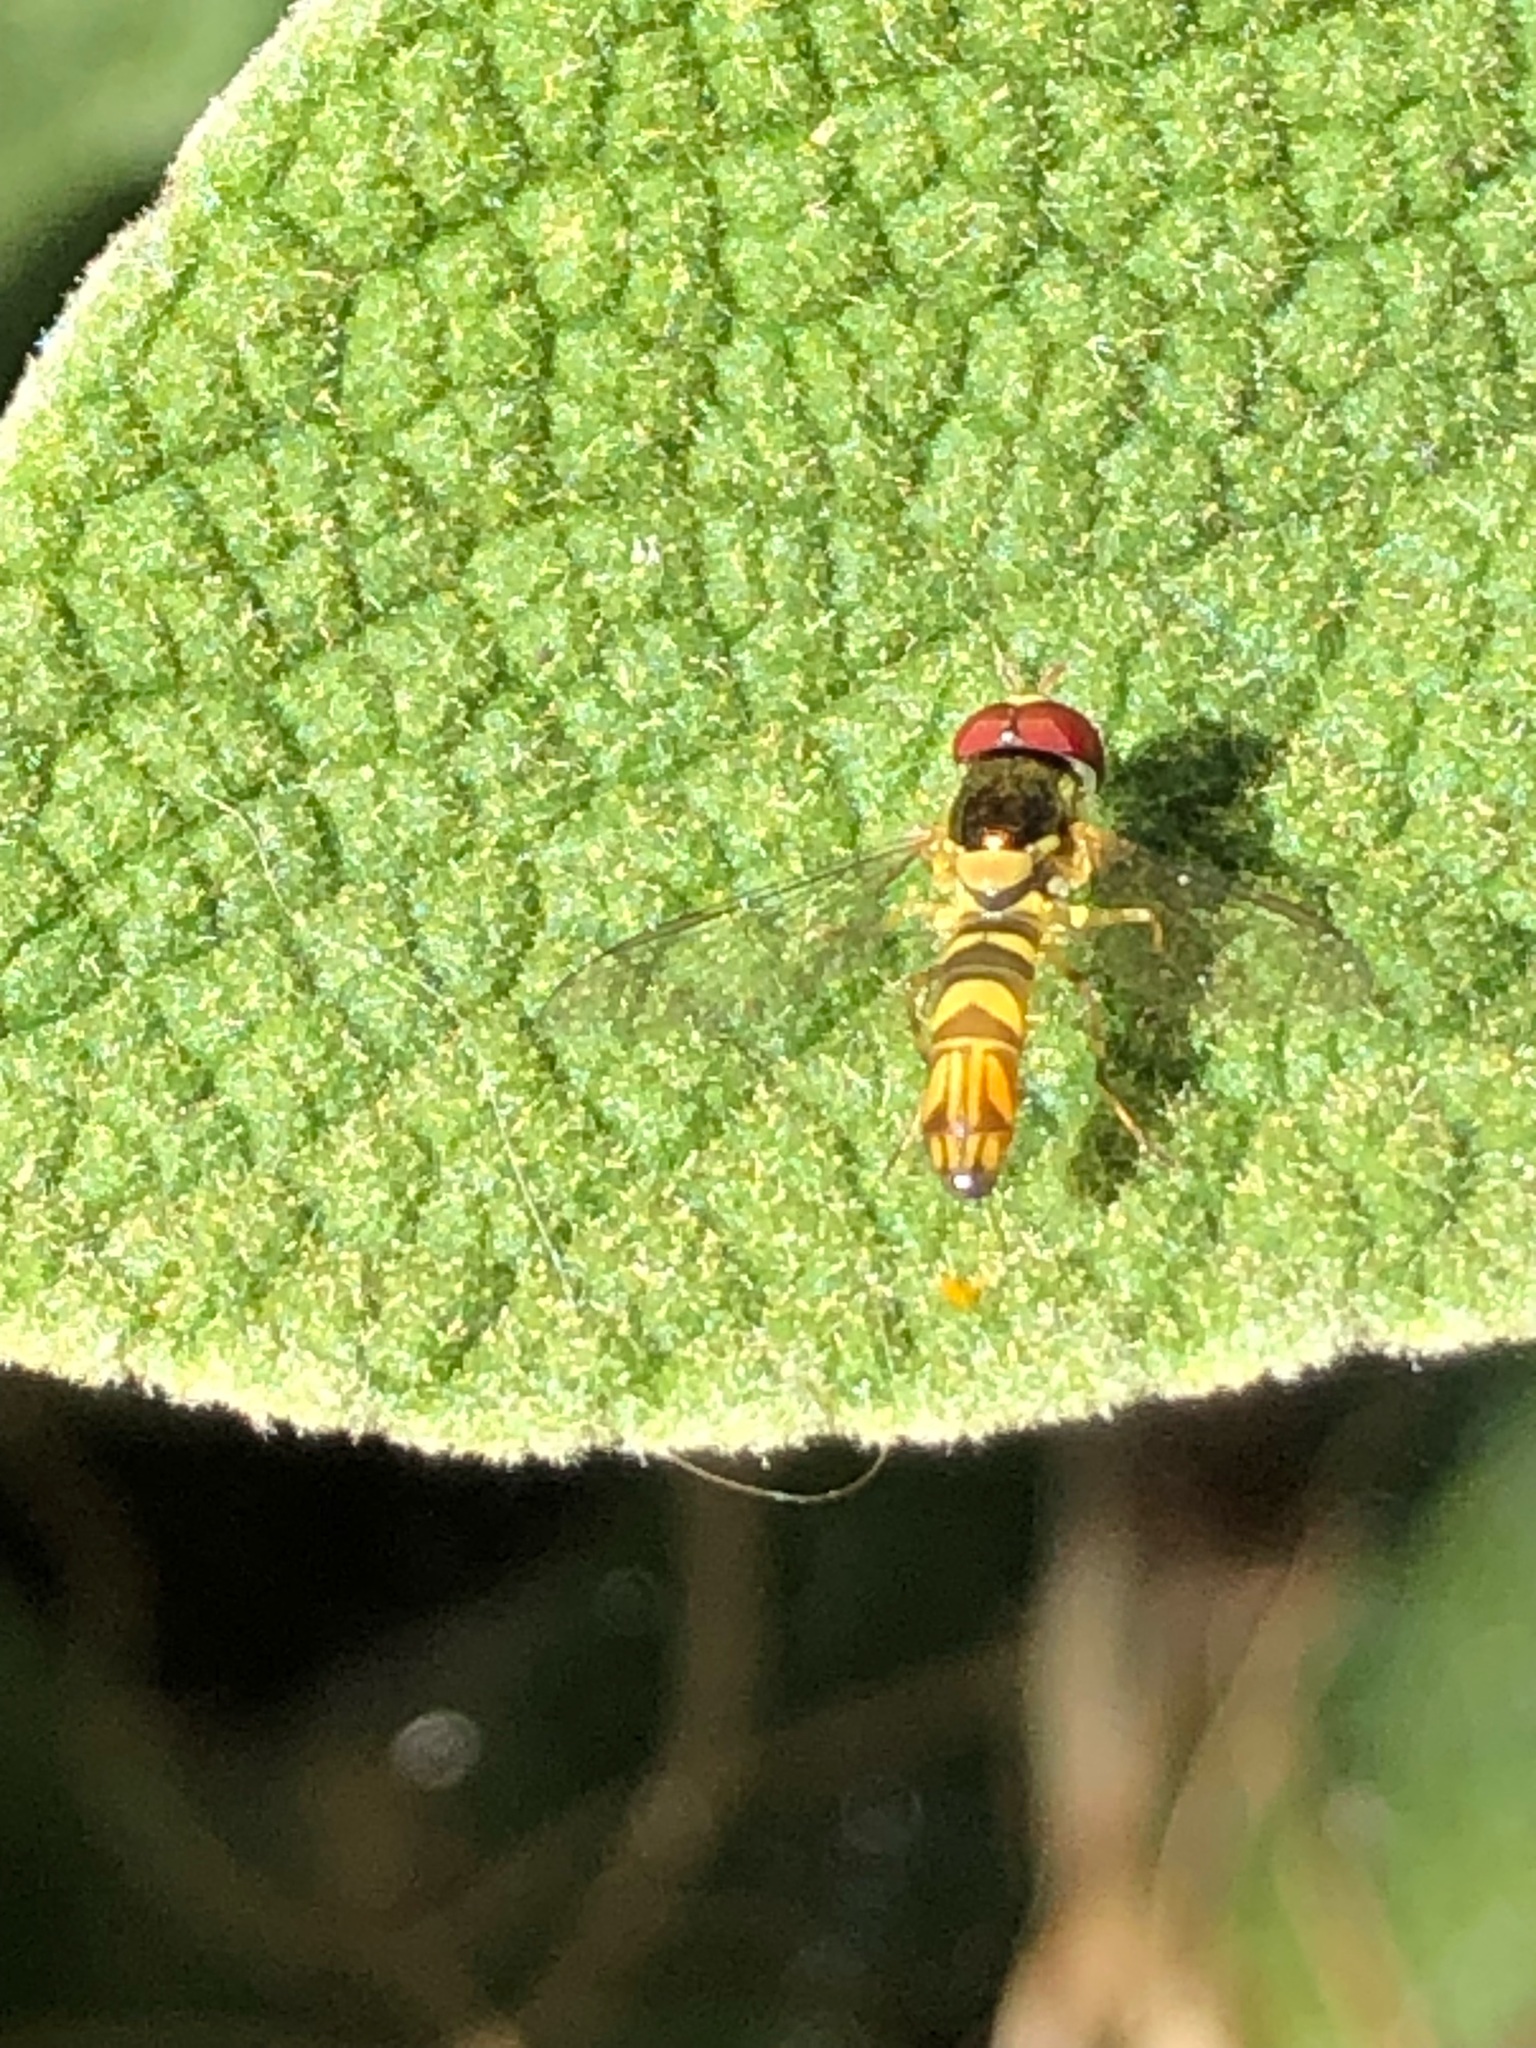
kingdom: Animalia
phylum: Arthropoda
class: Insecta
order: Diptera
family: Syrphidae
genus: Allograpta
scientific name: Allograpta obliqua
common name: Common oblique syrphid
